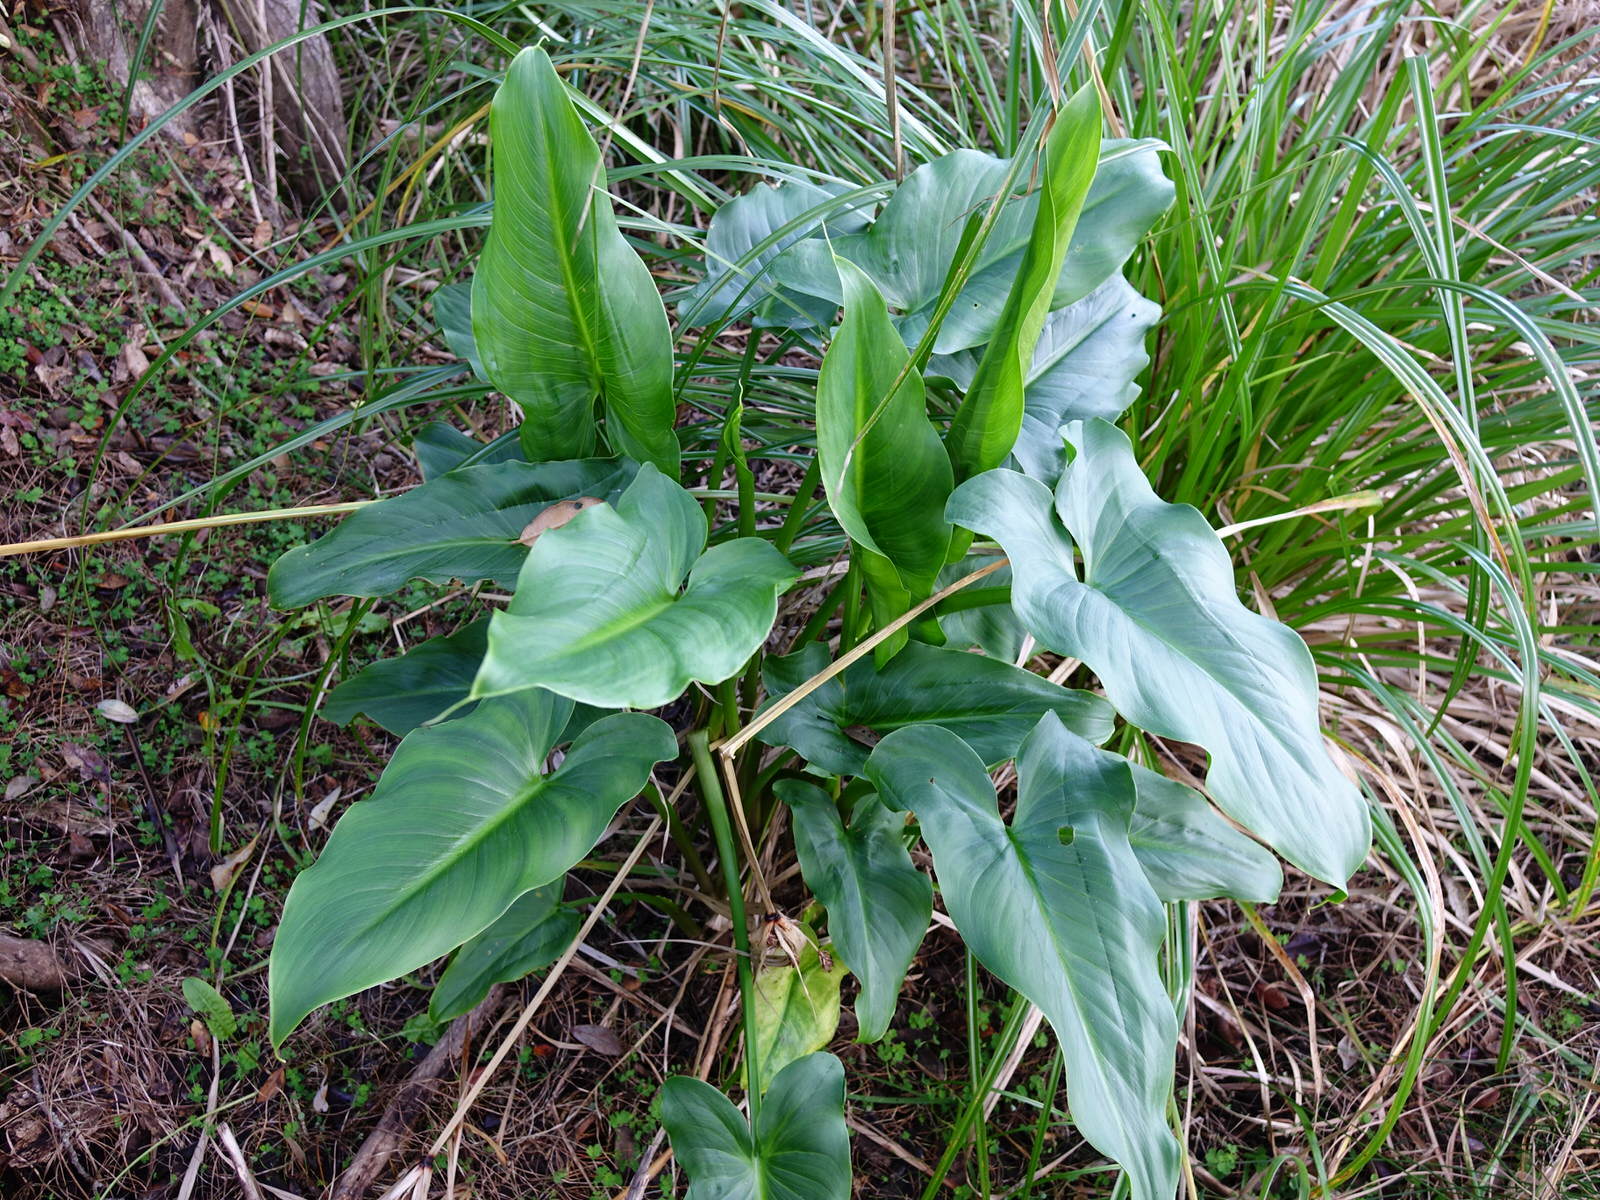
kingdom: Plantae
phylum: Tracheophyta
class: Liliopsida
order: Alismatales
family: Araceae
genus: Zantedeschia
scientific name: Zantedeschia aethiopica
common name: Altar-lily
